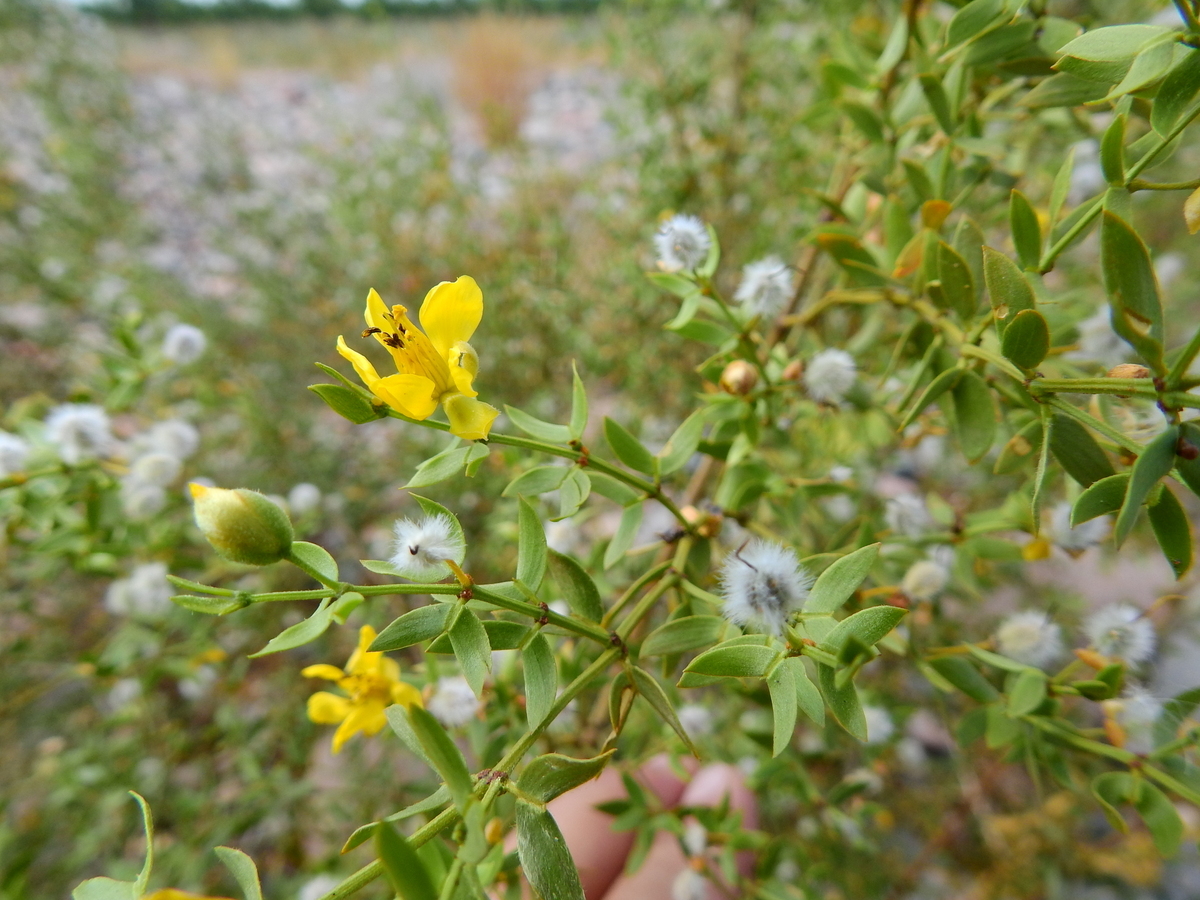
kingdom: Plantae
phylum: Tracheophyta
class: Magnoliopsida
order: Zygophyllales
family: Zygophyllaceae
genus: Larrea
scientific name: Larrea divaricata
